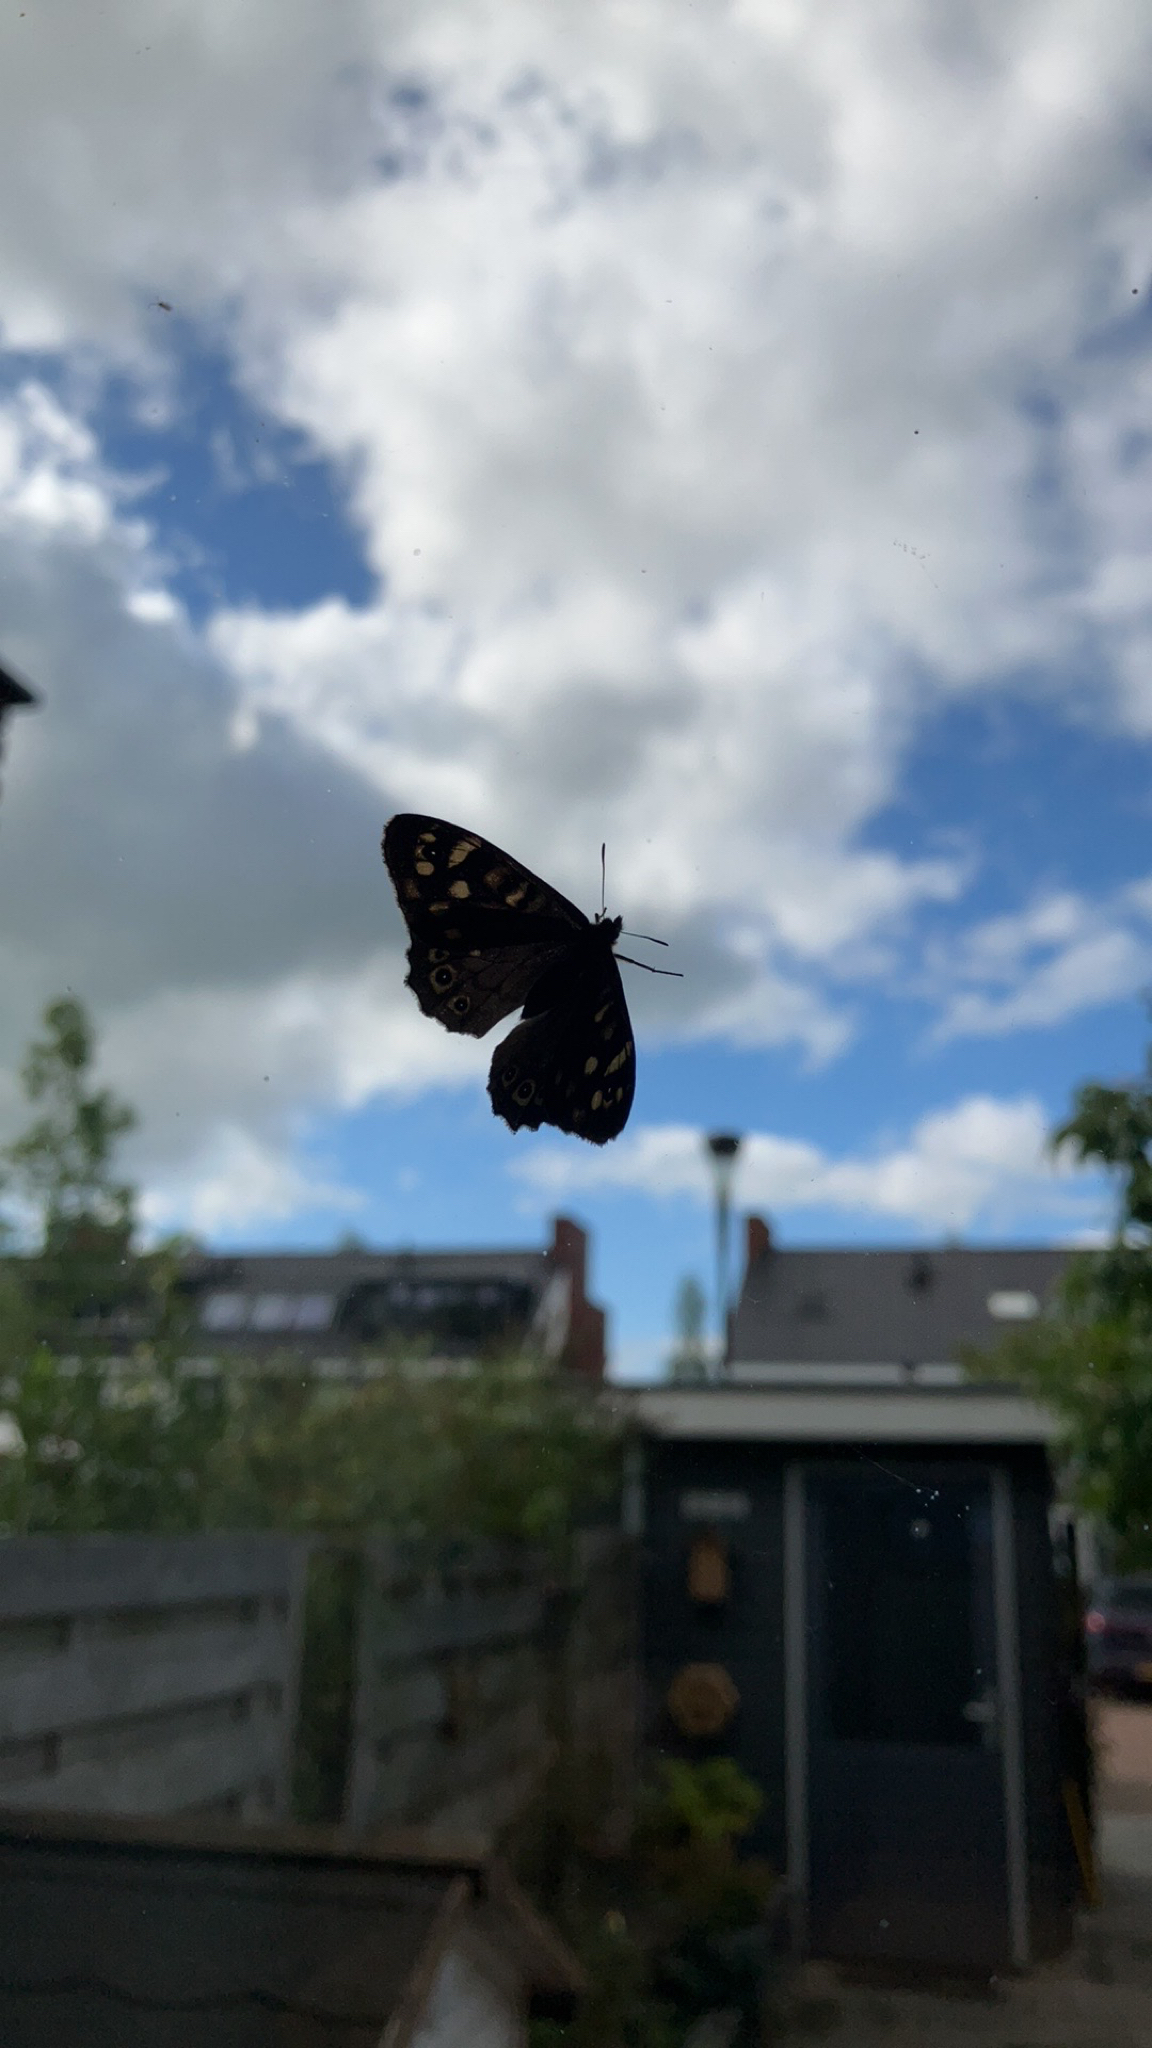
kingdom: Animalia
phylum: Arthropoda
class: Insecta
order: Lepidoptera
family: Nymphalidae
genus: Pararge
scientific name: Pararge aegeria
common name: Speckled wood
